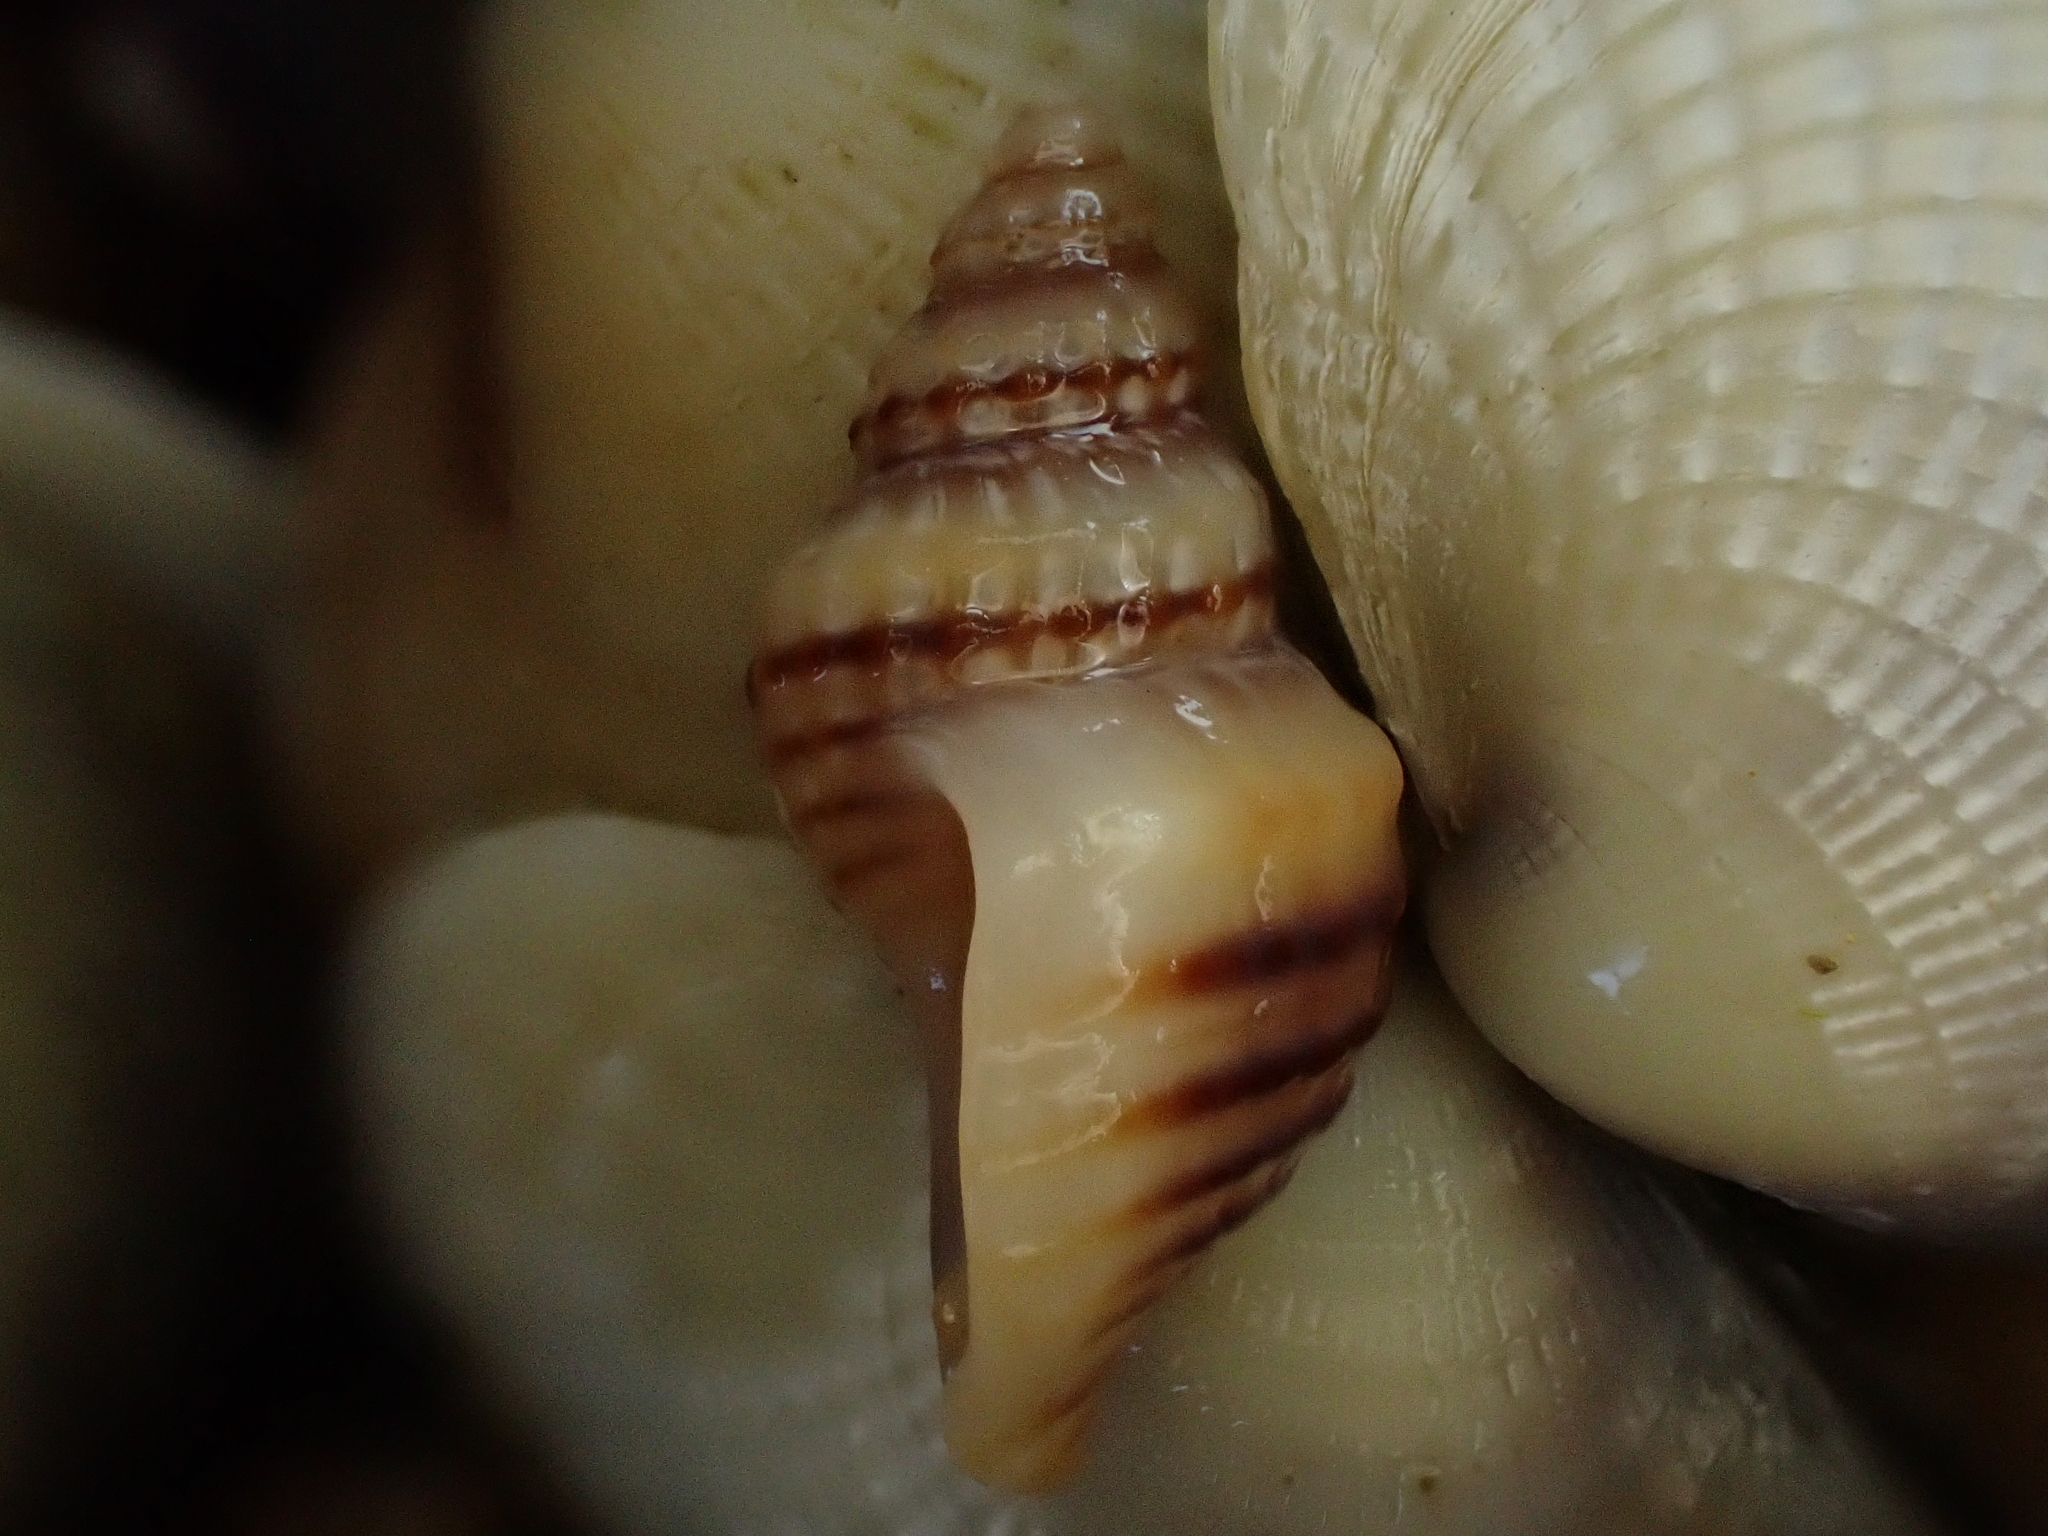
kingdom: Animalia
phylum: Mollusca
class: Gastropoda
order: Neogastropoda
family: Muricidae
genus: Xymene
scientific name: Xymene plebeius
